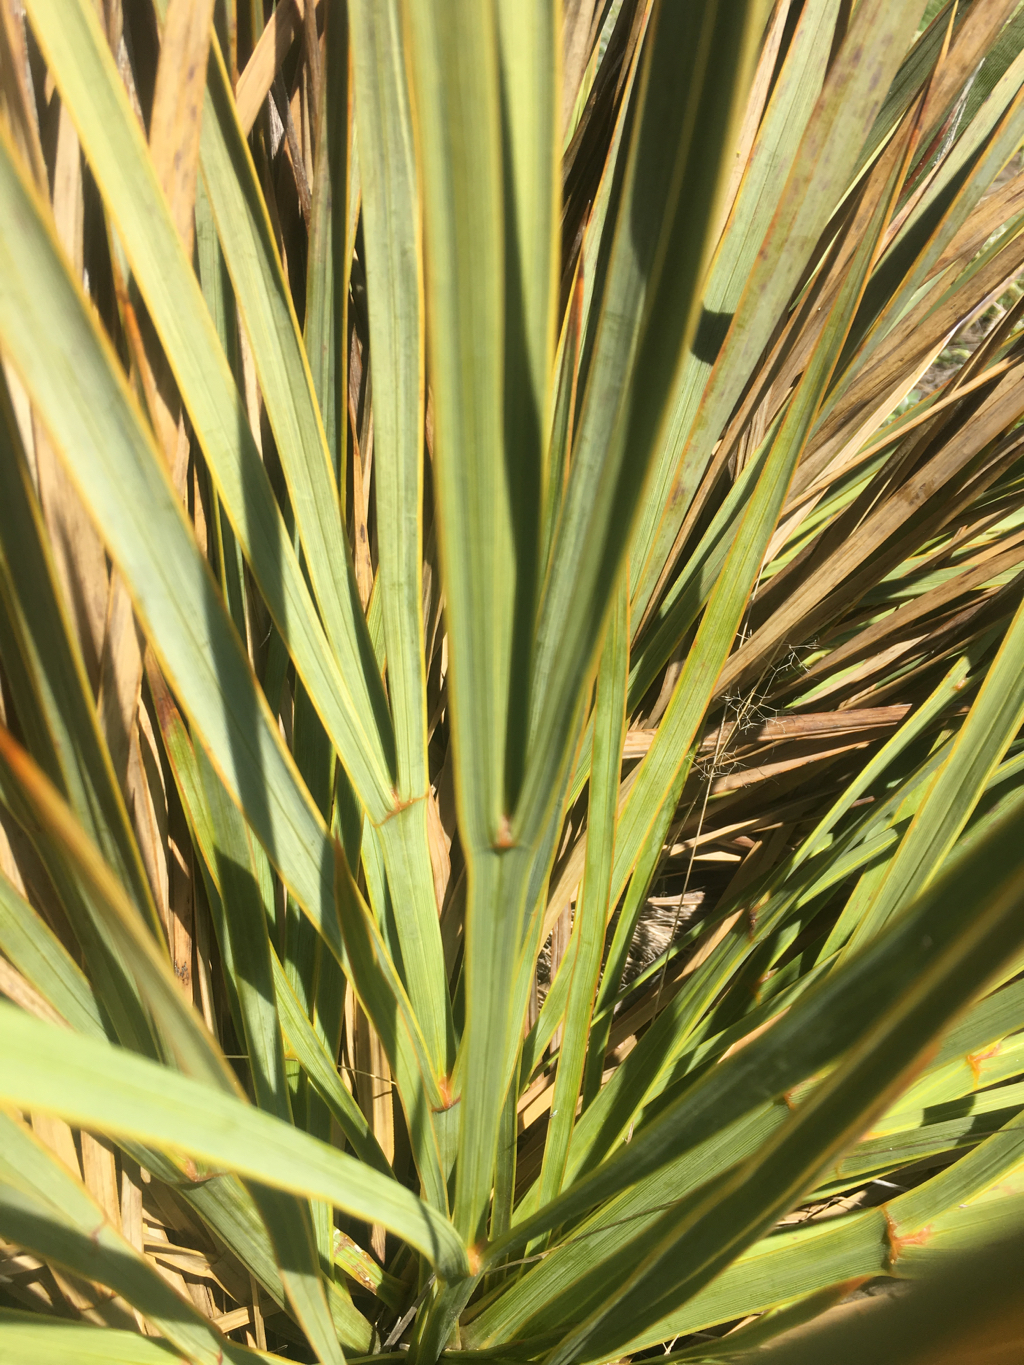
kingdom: Plantae
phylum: Tracheophyta
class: Magnoliopsida
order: Apiales
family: Apiaceae
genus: Aciphylla
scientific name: Aciphylla aurea
